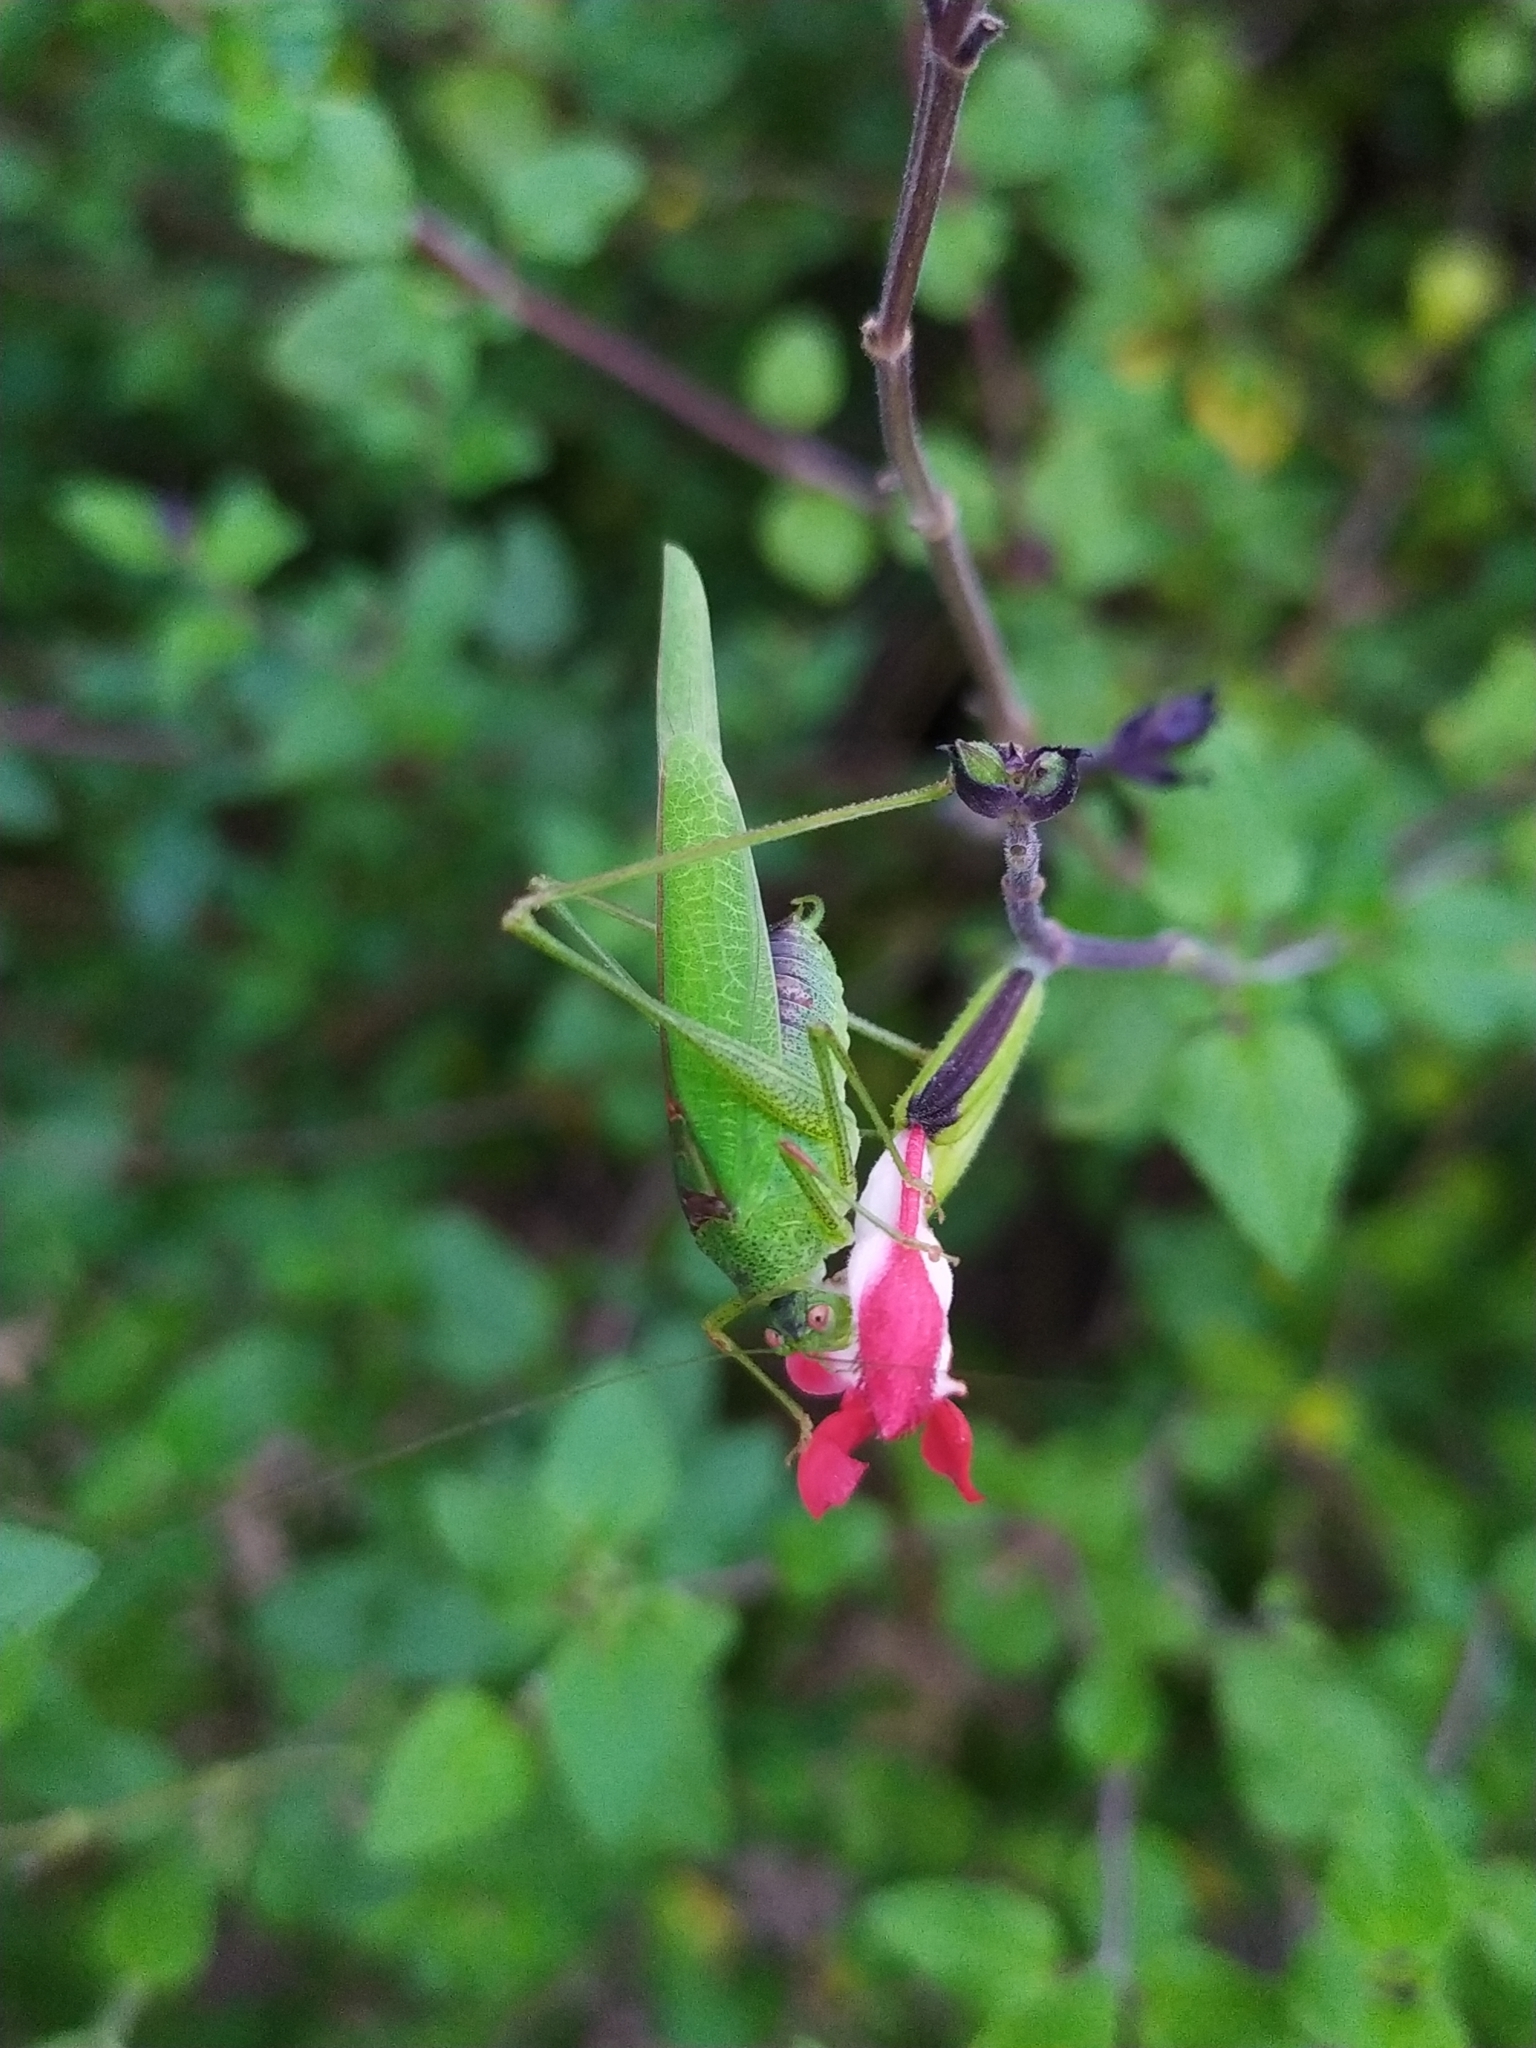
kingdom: Animalia
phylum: Arthropoda
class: Insecta
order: Orthoptera
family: Tettigoniidae
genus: Phaneroptera
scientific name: Phaneroptera nana
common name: Southern sickle bush-cricket
